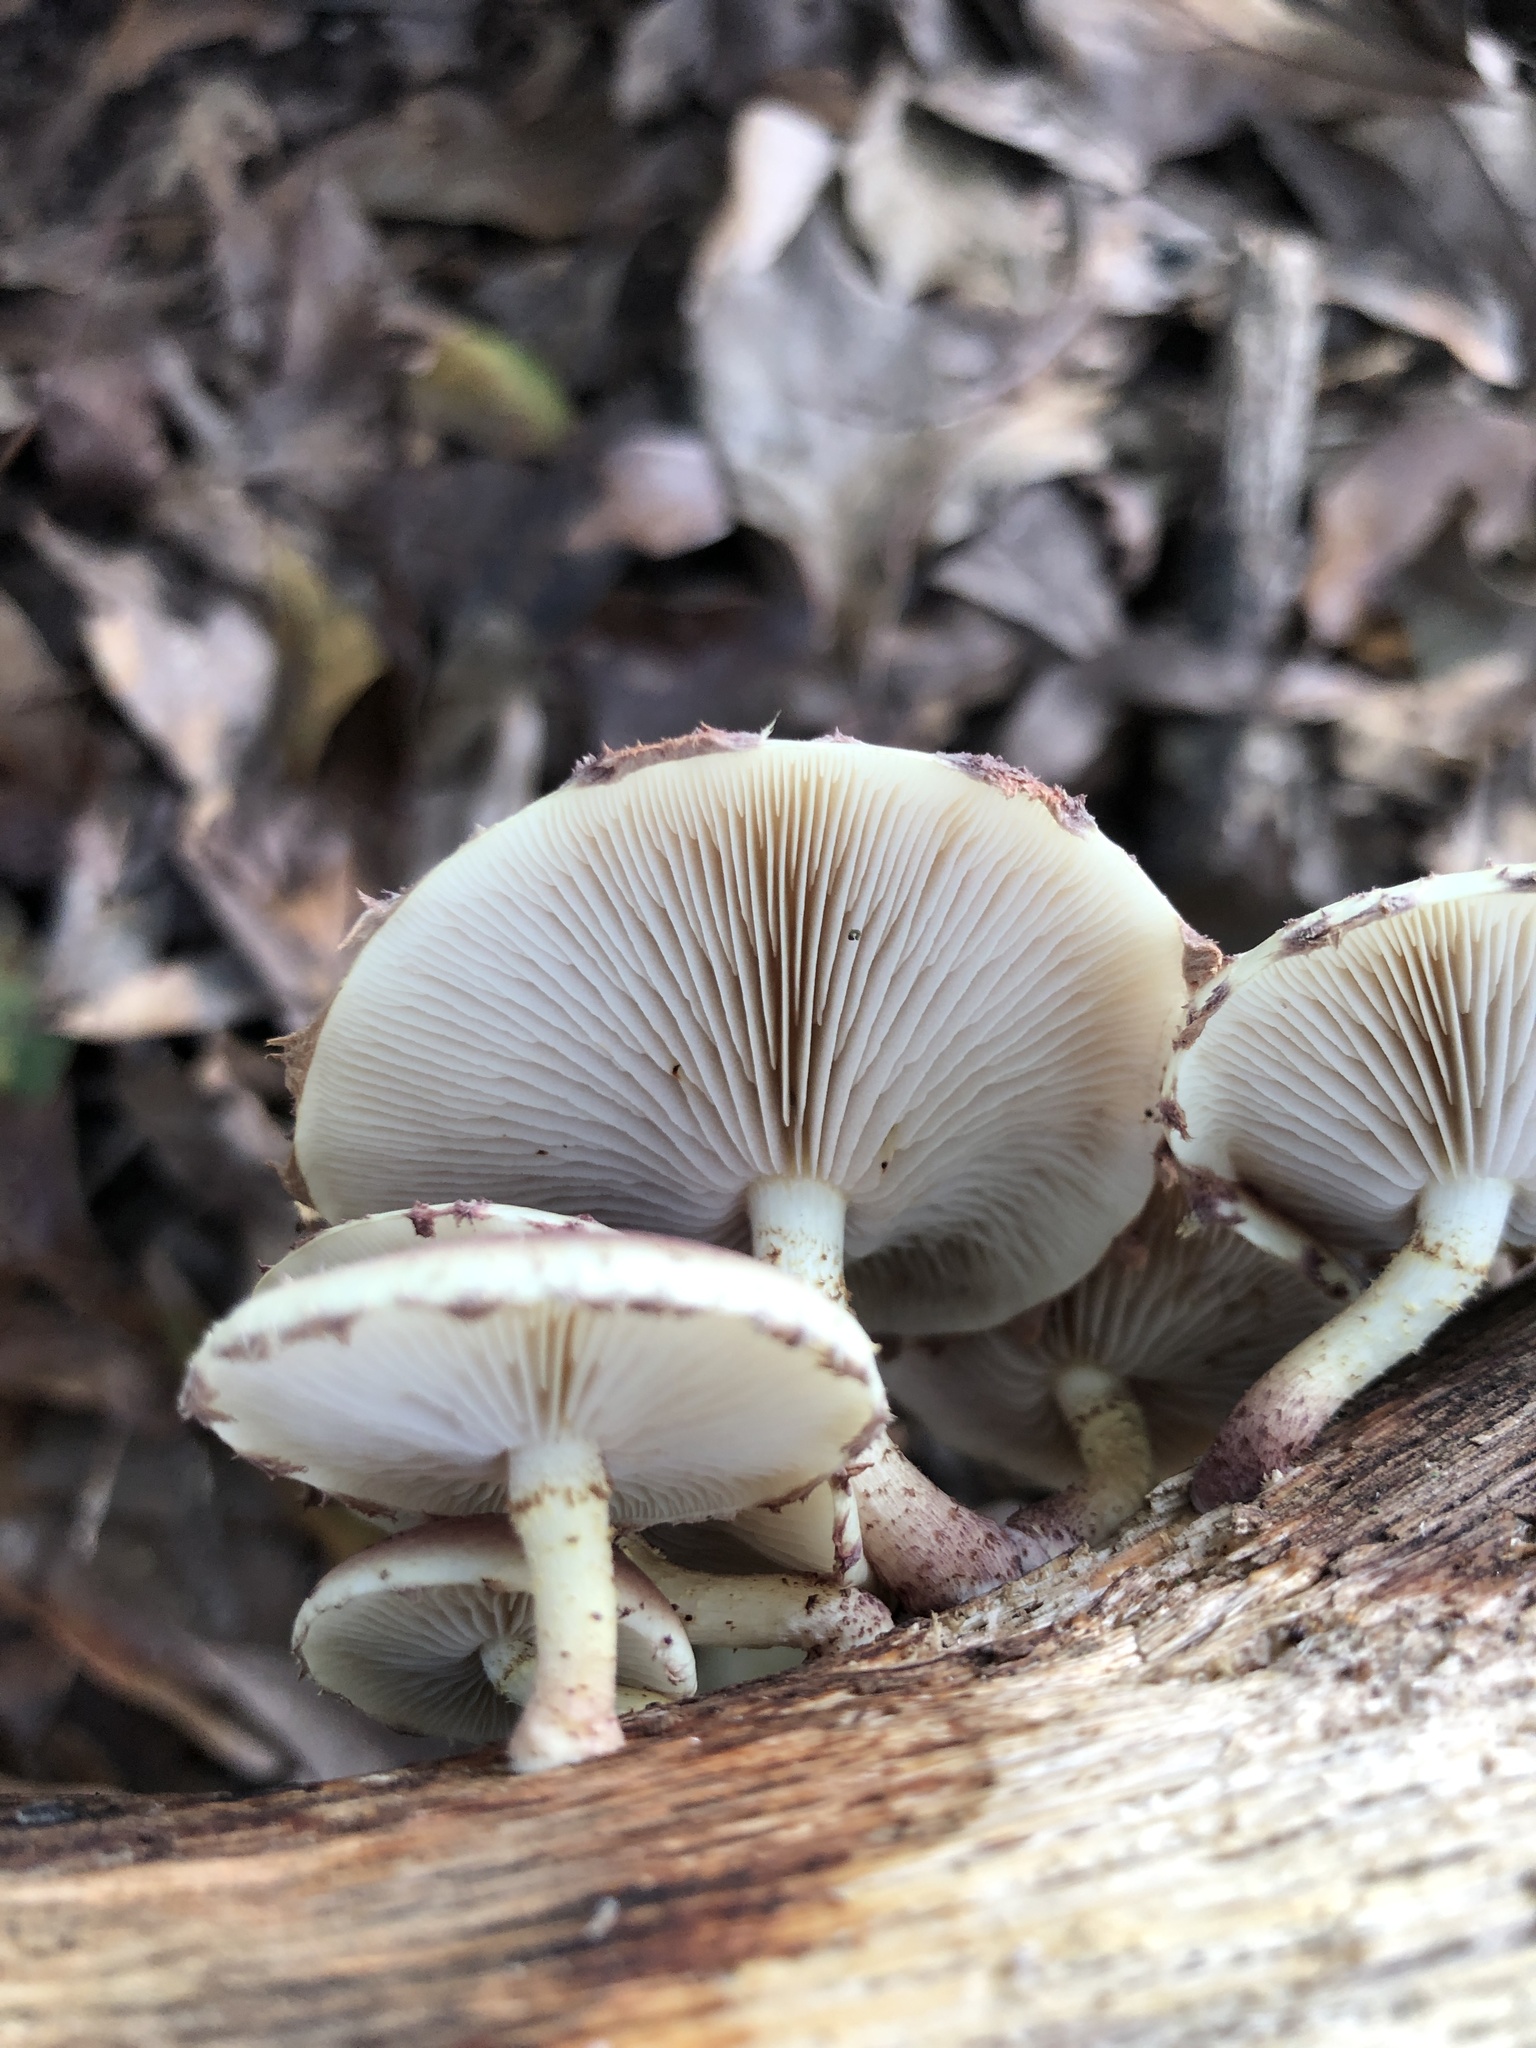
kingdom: Fungi
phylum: Basidiomycota
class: Agaricomycetes
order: Agaricales
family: Strophariaceae
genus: Pholiota
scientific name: Pholiota polychroa
